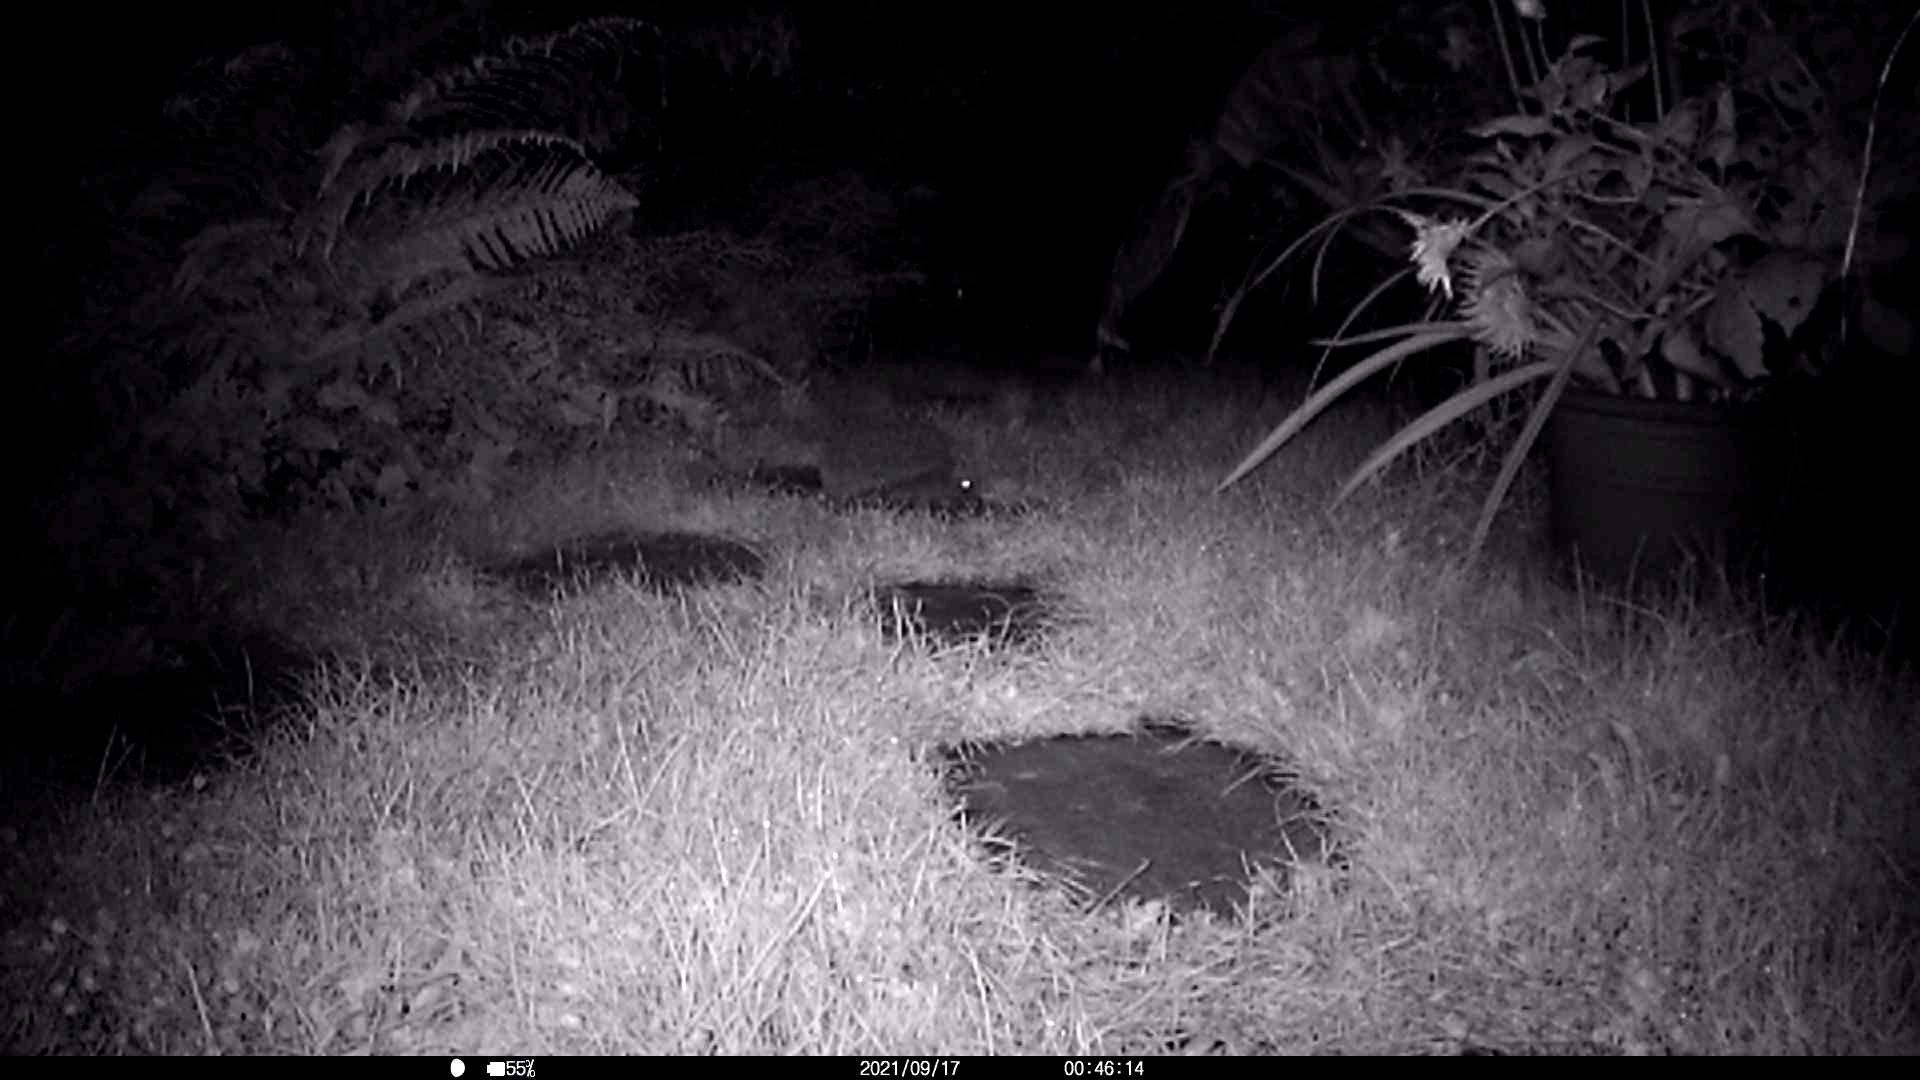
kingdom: Animalia
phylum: Chordata
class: Mammalia
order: Erinaceomorpha
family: Erinaceidae
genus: Erinaceus
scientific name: Erinaceus europaeus
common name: West european hedgehog
